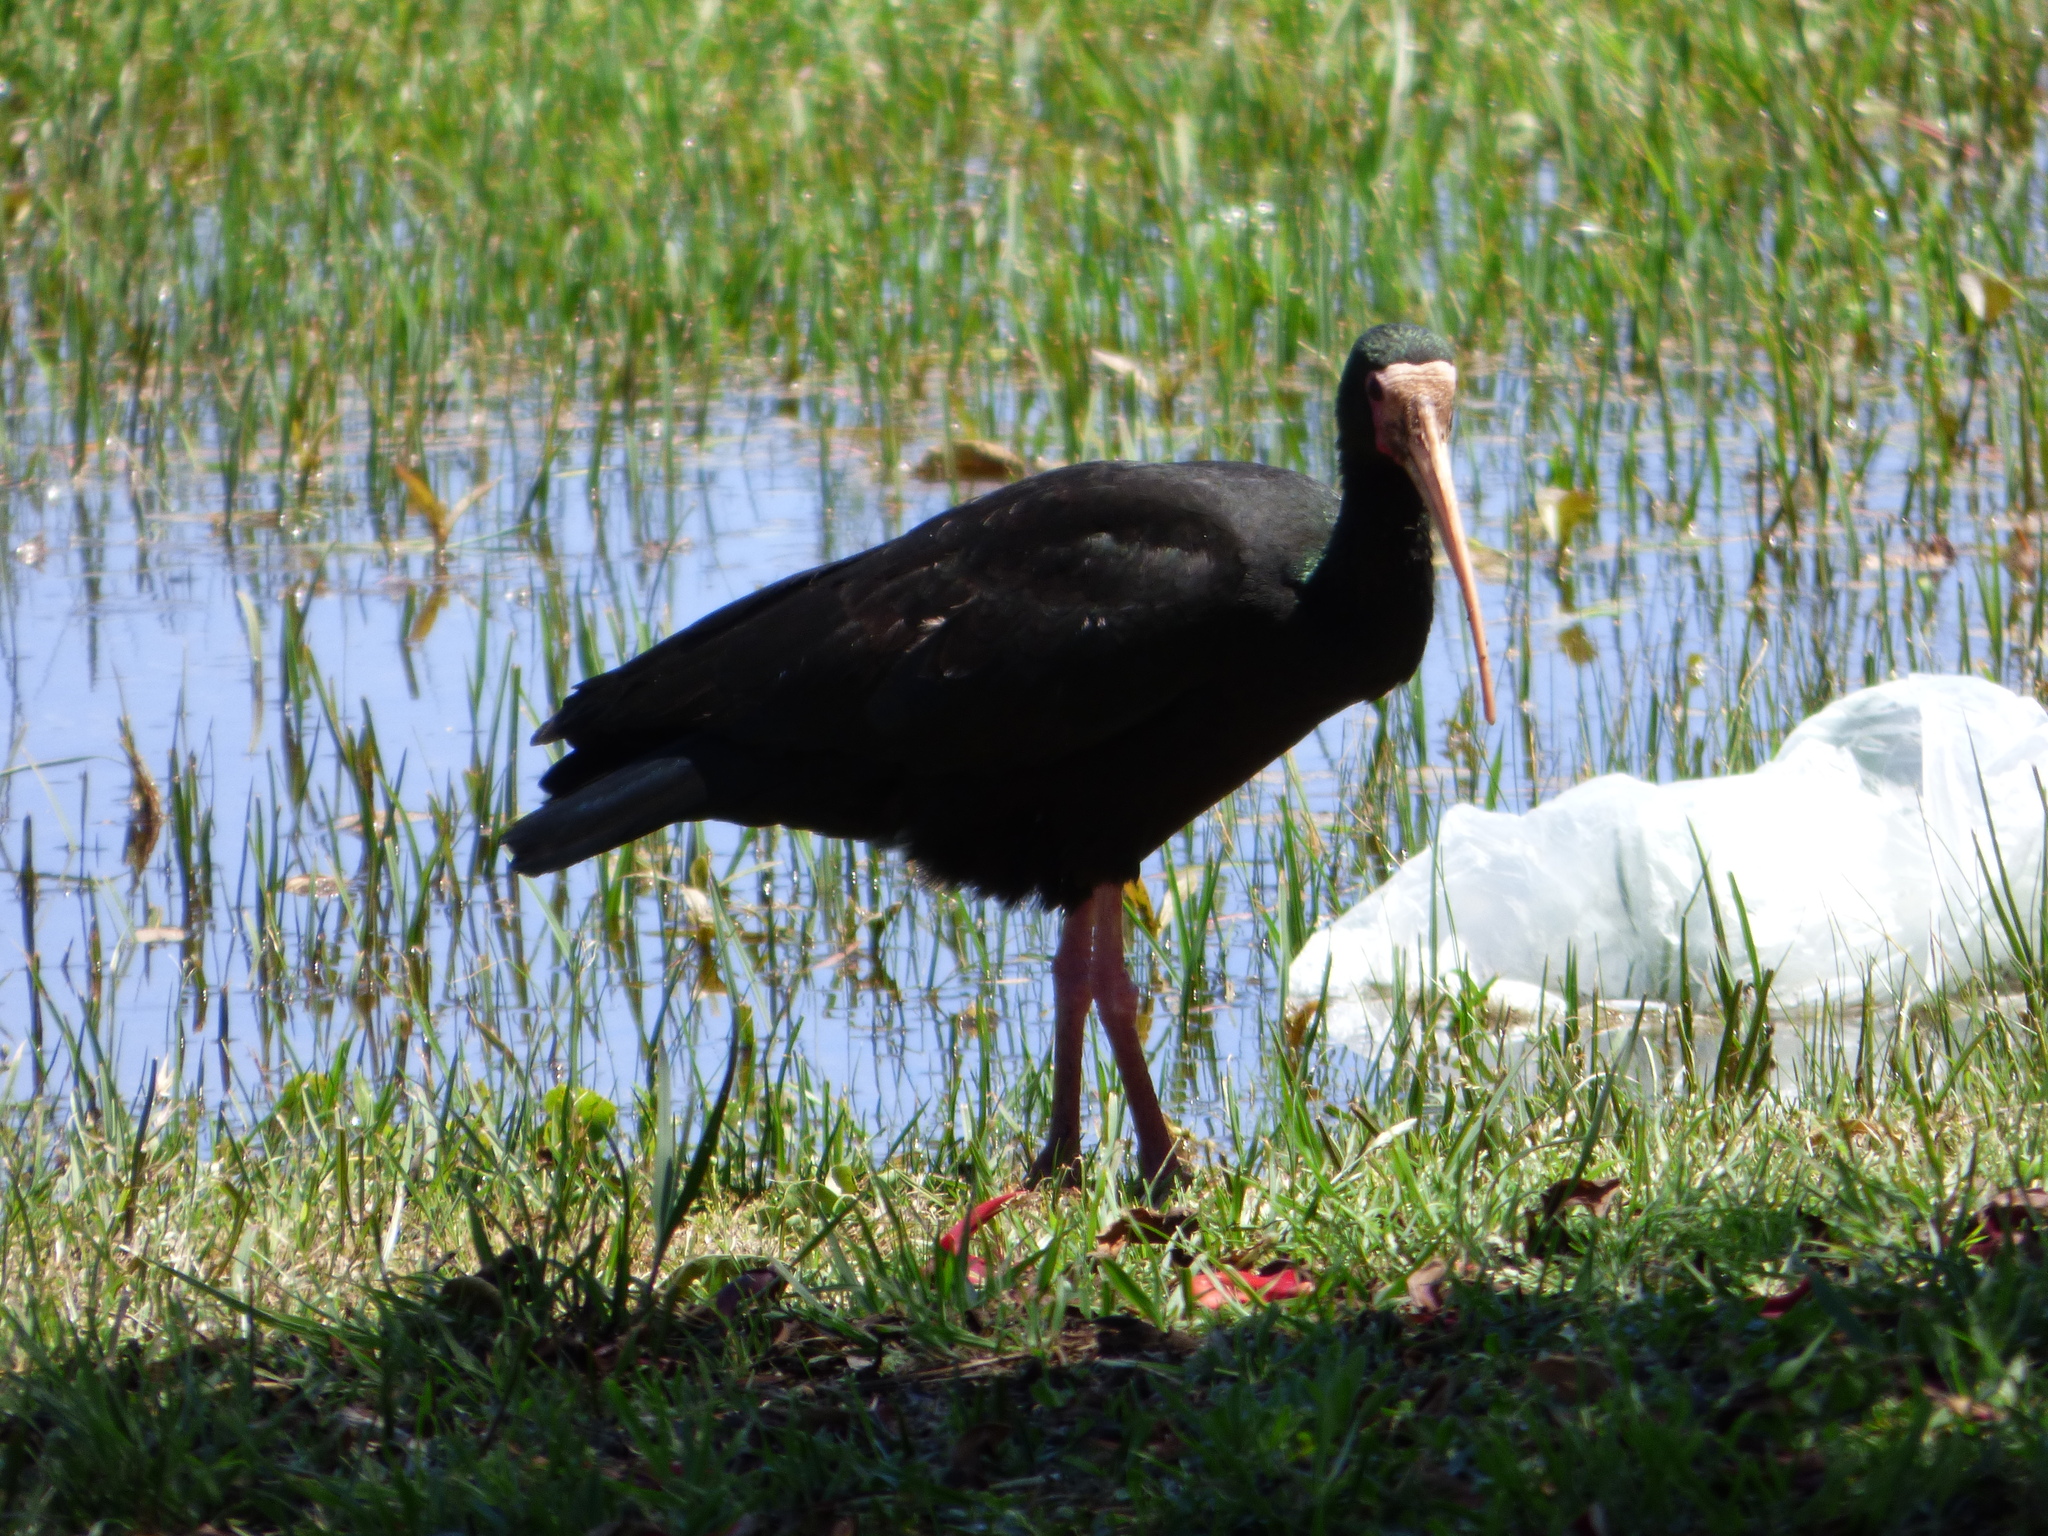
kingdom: Animalia
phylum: Chordata
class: Aves
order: Pelecaniformes
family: Threskiornithidae
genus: Phimosus
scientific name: Phimosus infuscatus
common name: Bare-faced ibis
